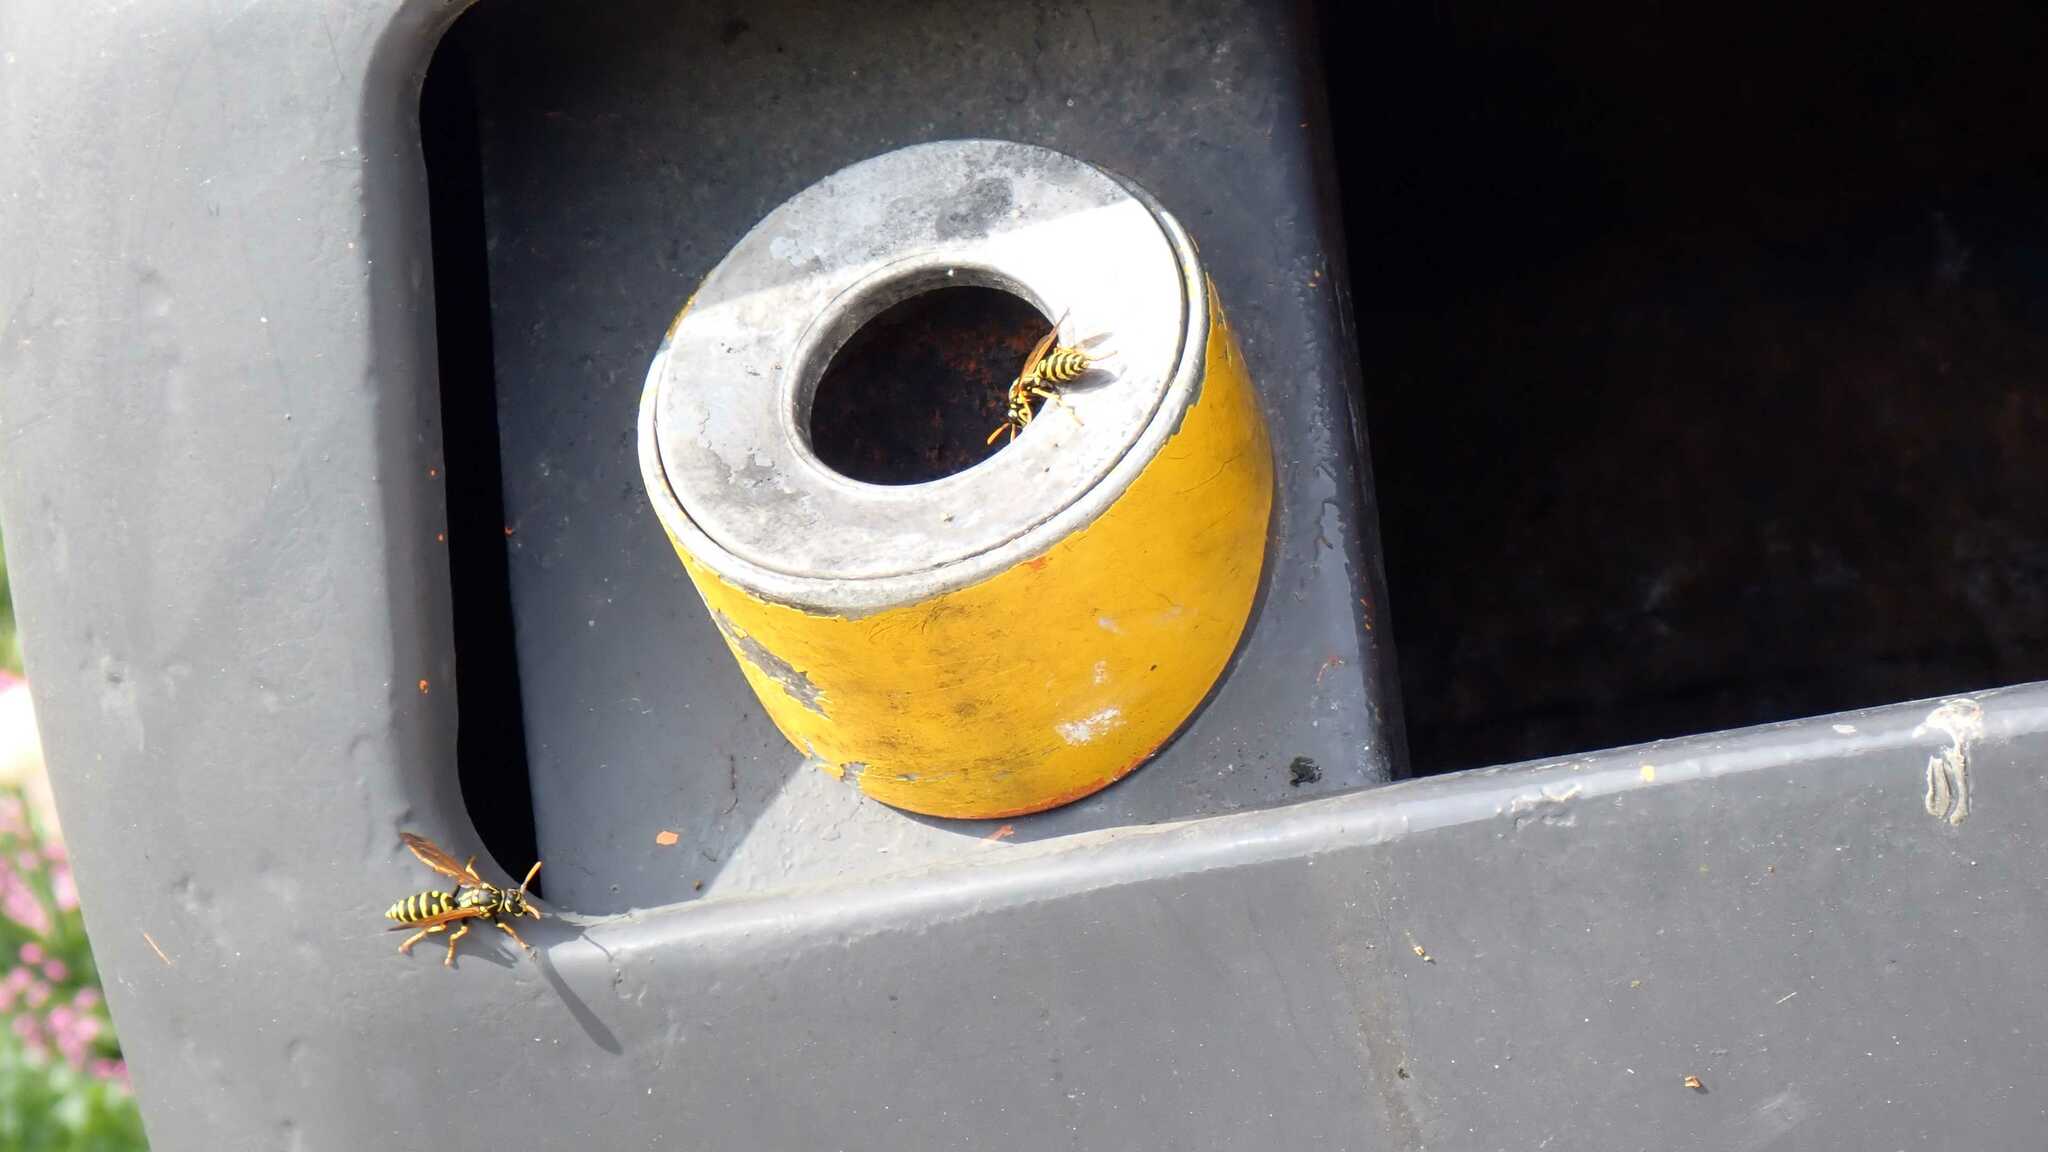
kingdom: Animalia
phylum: Arthropoda
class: Insecta
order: Hymenoptera
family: Eumenidae
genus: Polistes
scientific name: Polistes dominula
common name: Paper wasp
